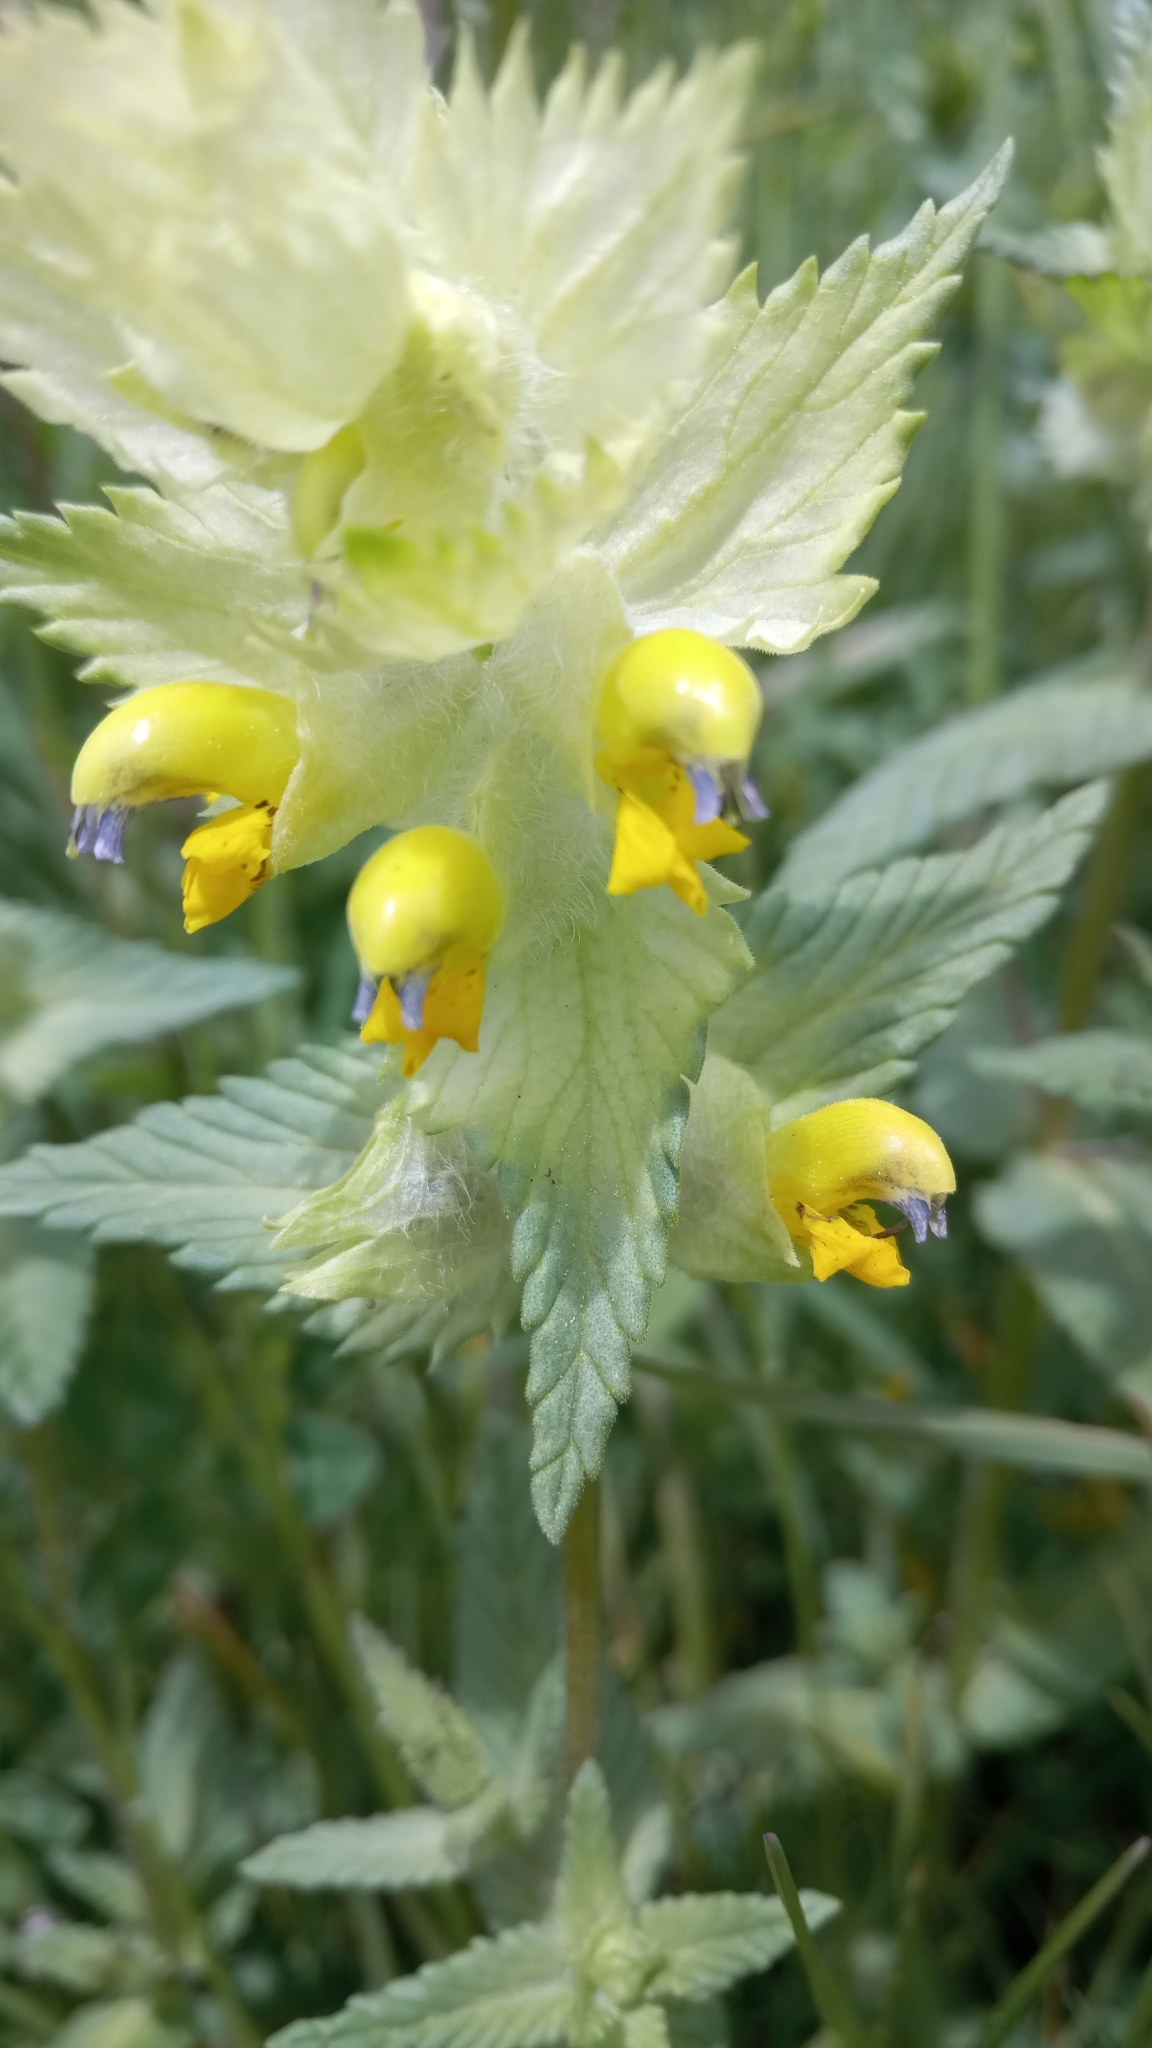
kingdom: Plantae
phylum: Tracheophyta
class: Magnoliopsida
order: Lamiales
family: Orobanchaceae
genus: Rhinanthus
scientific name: Rhinanthus alectorolophus
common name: Greater yellow-rattle
